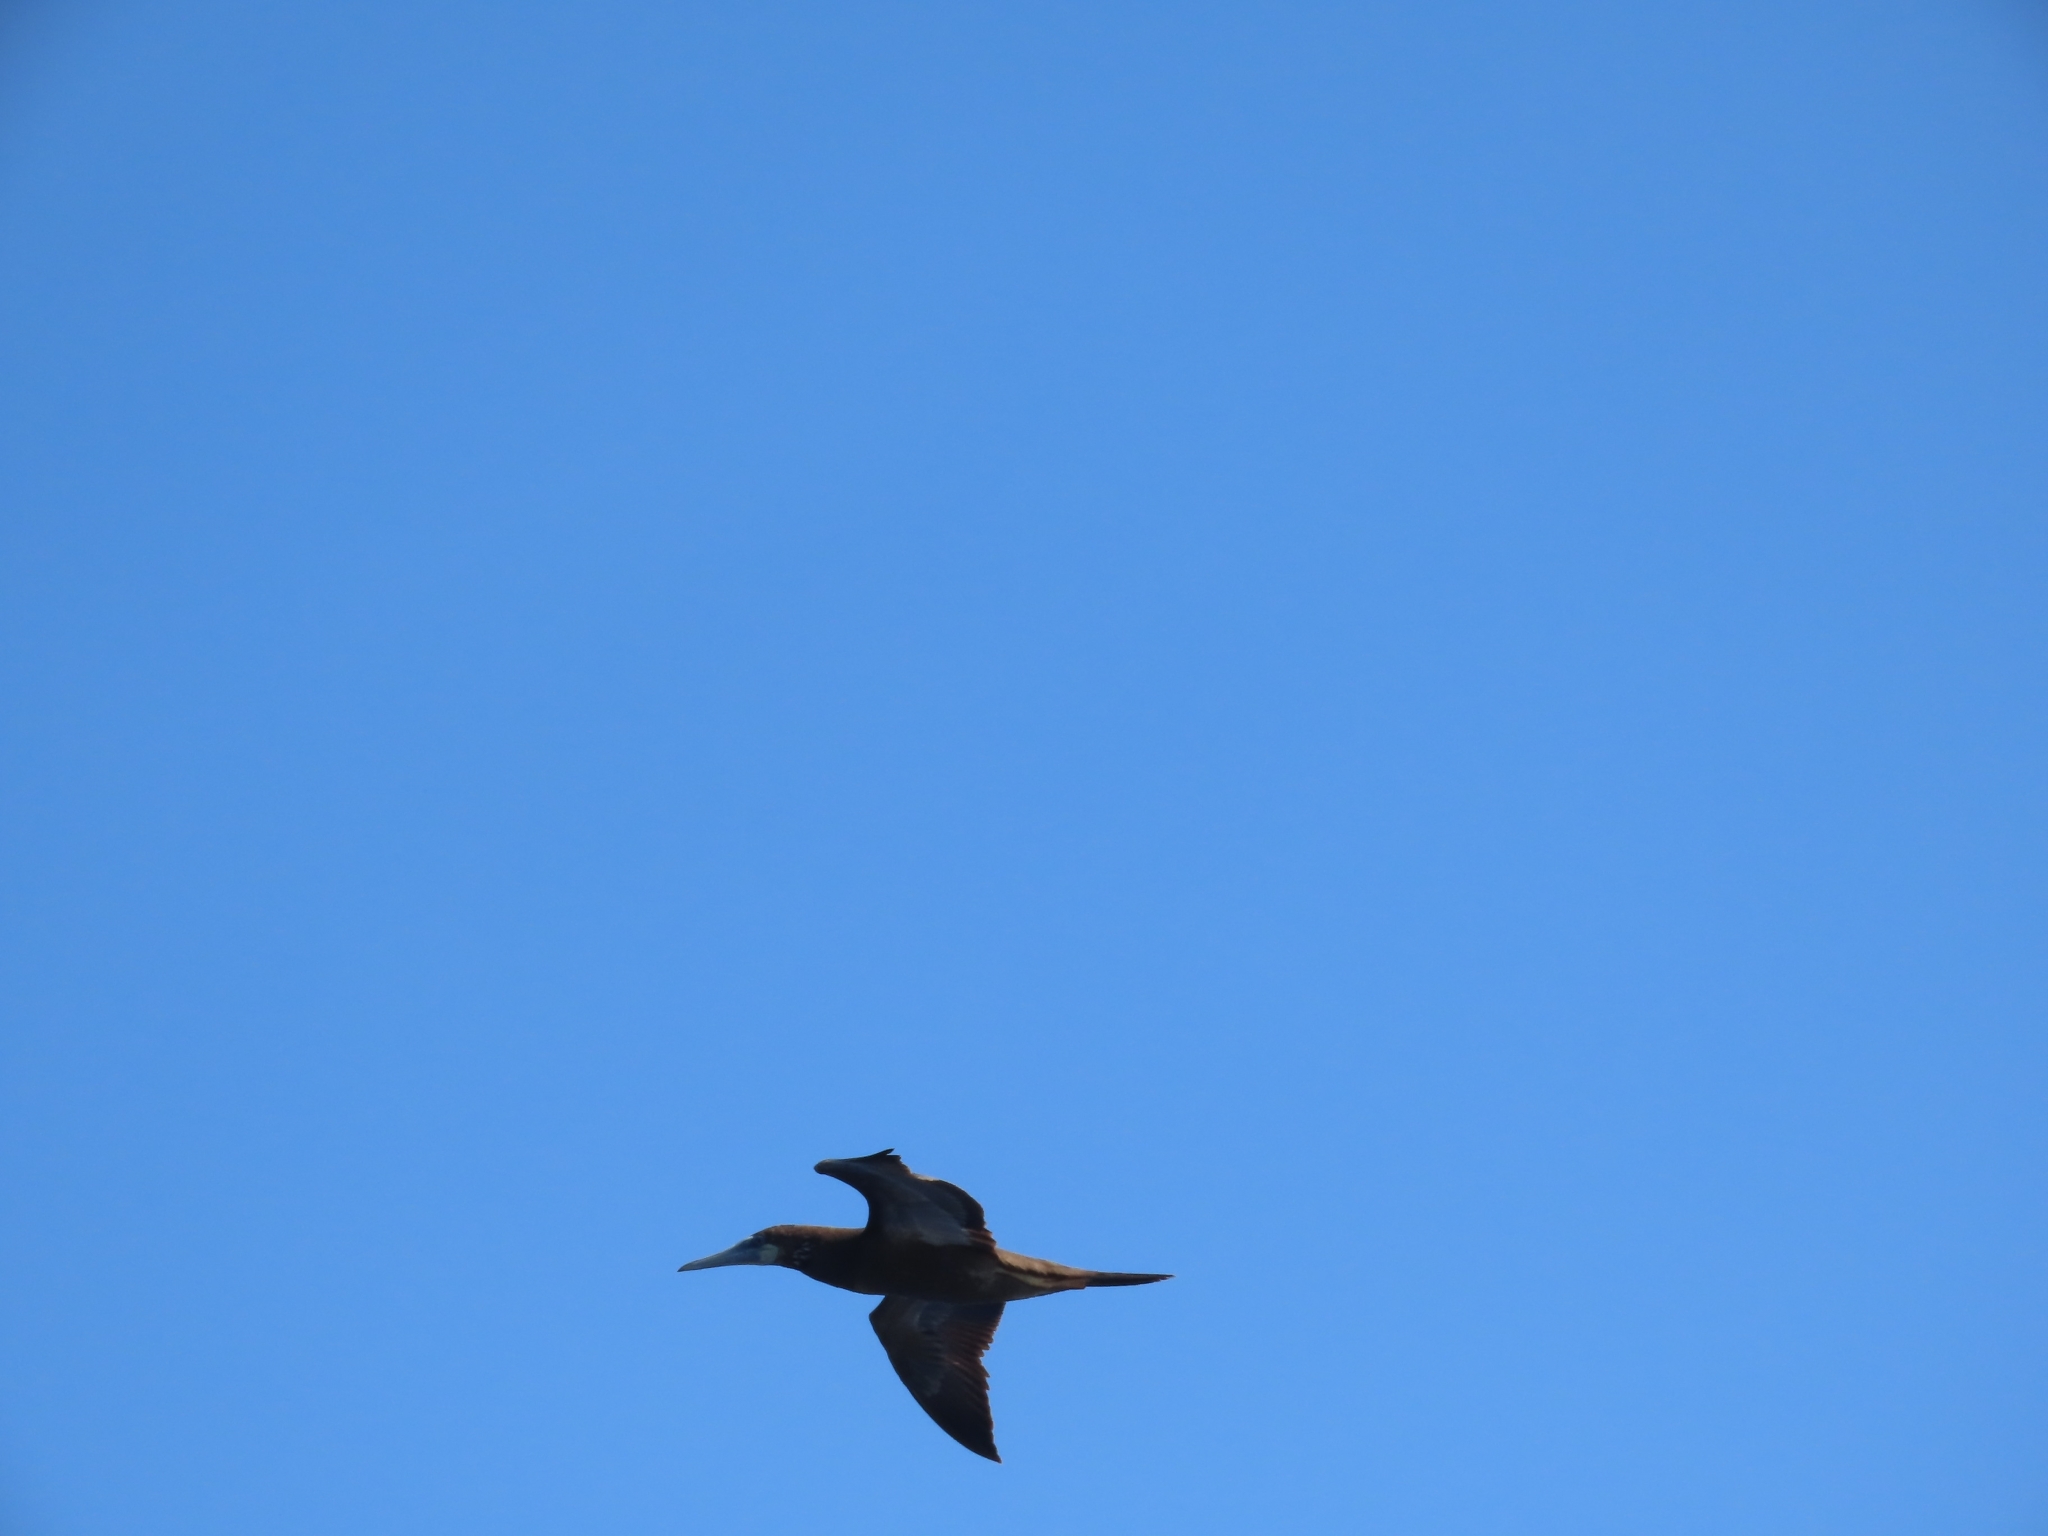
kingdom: Animalia
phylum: Chordata
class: Aves
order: Suliformes
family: Sulidae
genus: Sula
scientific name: Sula leucogaster
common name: Brown booby
